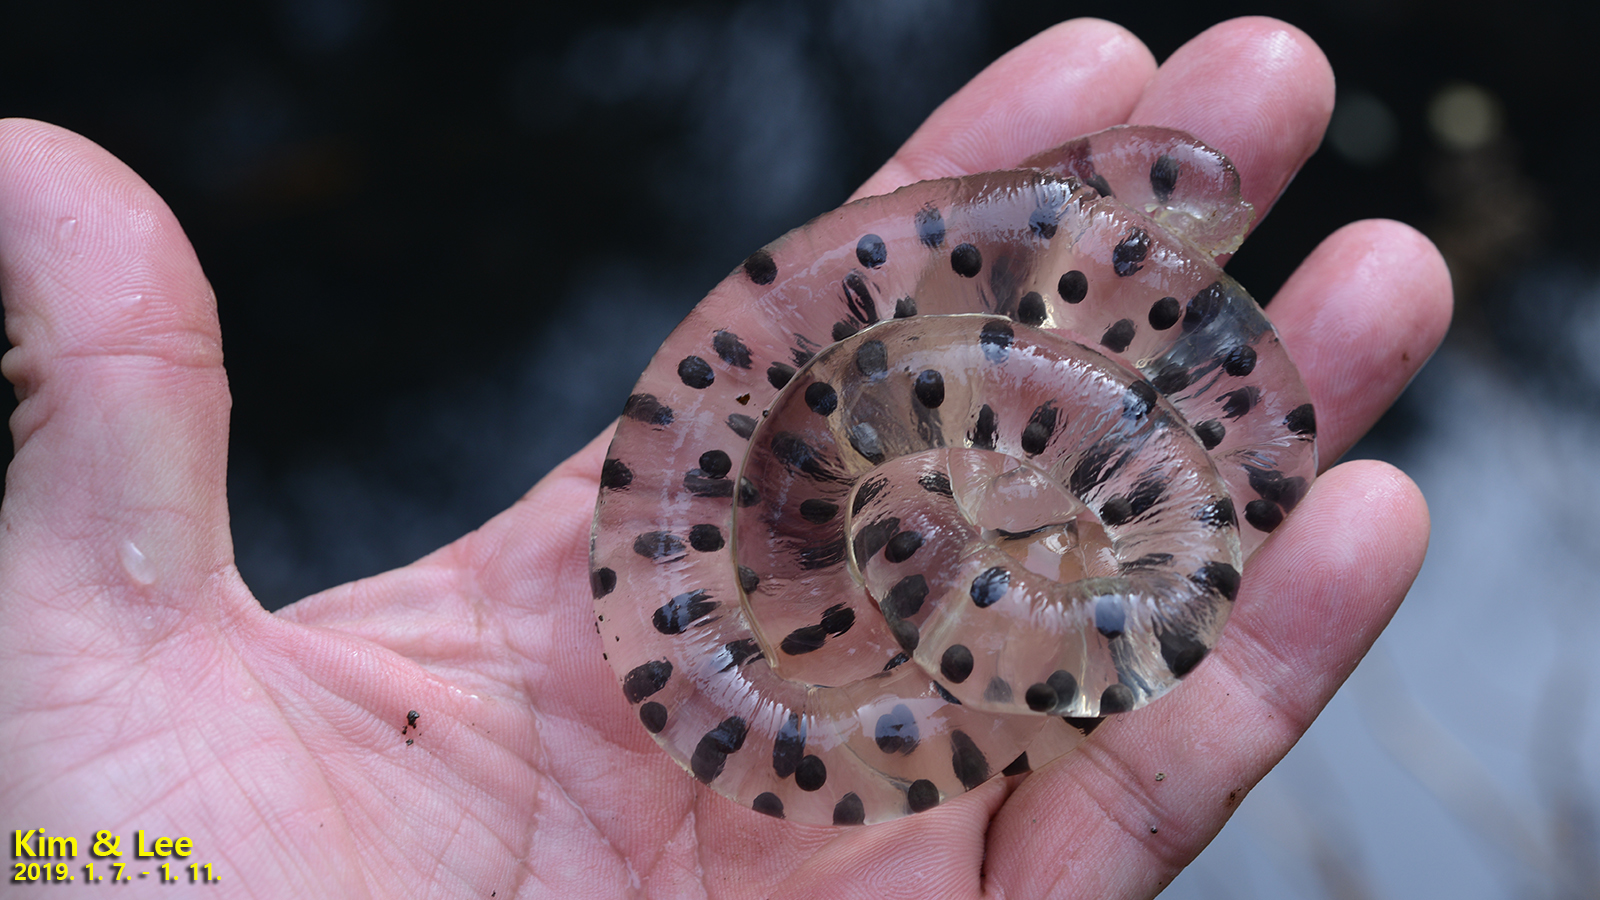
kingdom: Animalia
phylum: Chordata
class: Amphibia
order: Caudata
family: Hynobiidae
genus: Hynobius
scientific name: Hynobius quelpaertensis
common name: Cheju salamander
